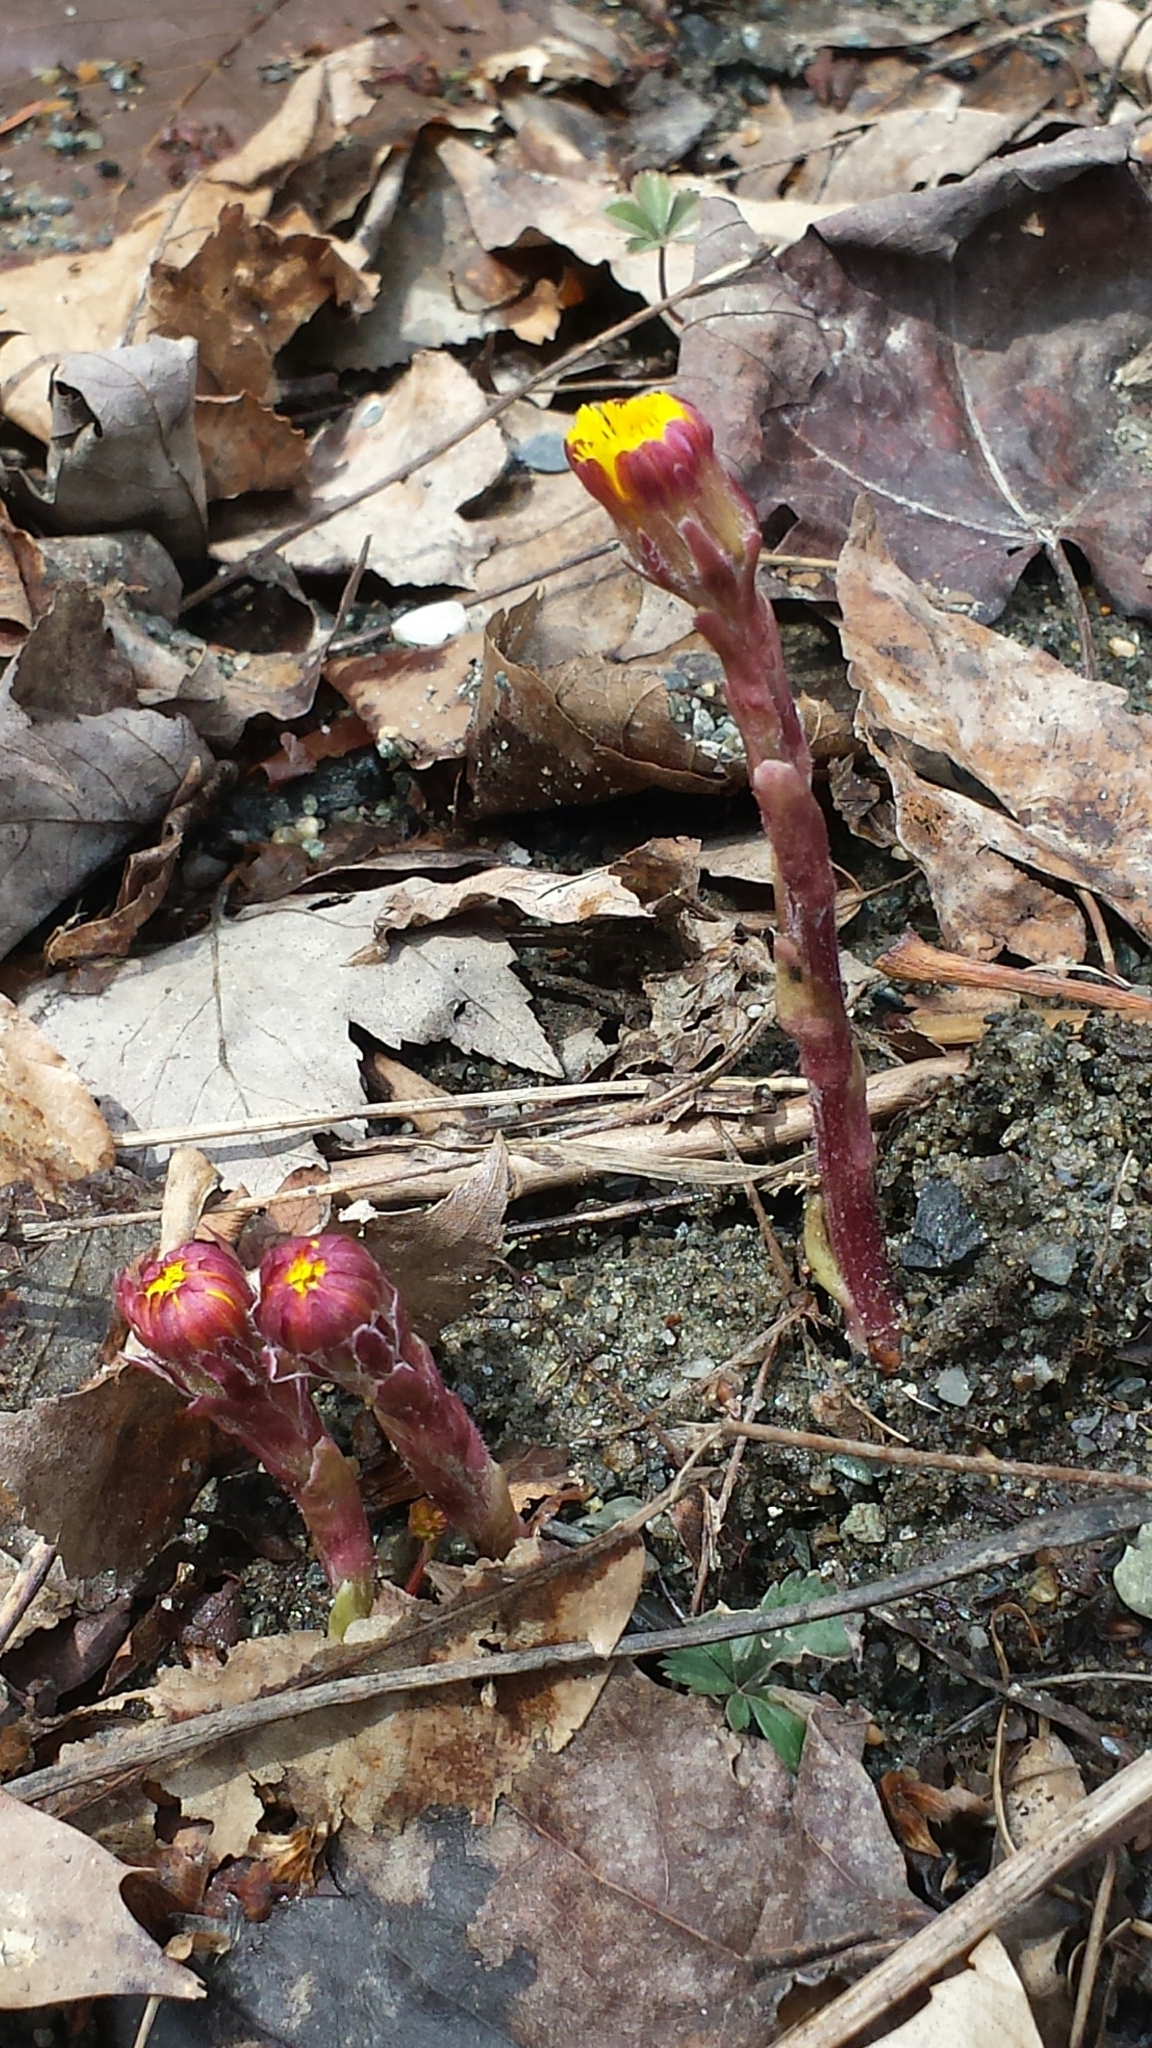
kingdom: Plantae
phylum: Tracheophyta
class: Magnoliopsida
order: Asterales
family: Asteraceae
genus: Tussilago
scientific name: Tussilago farfara
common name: Coltsfoot
